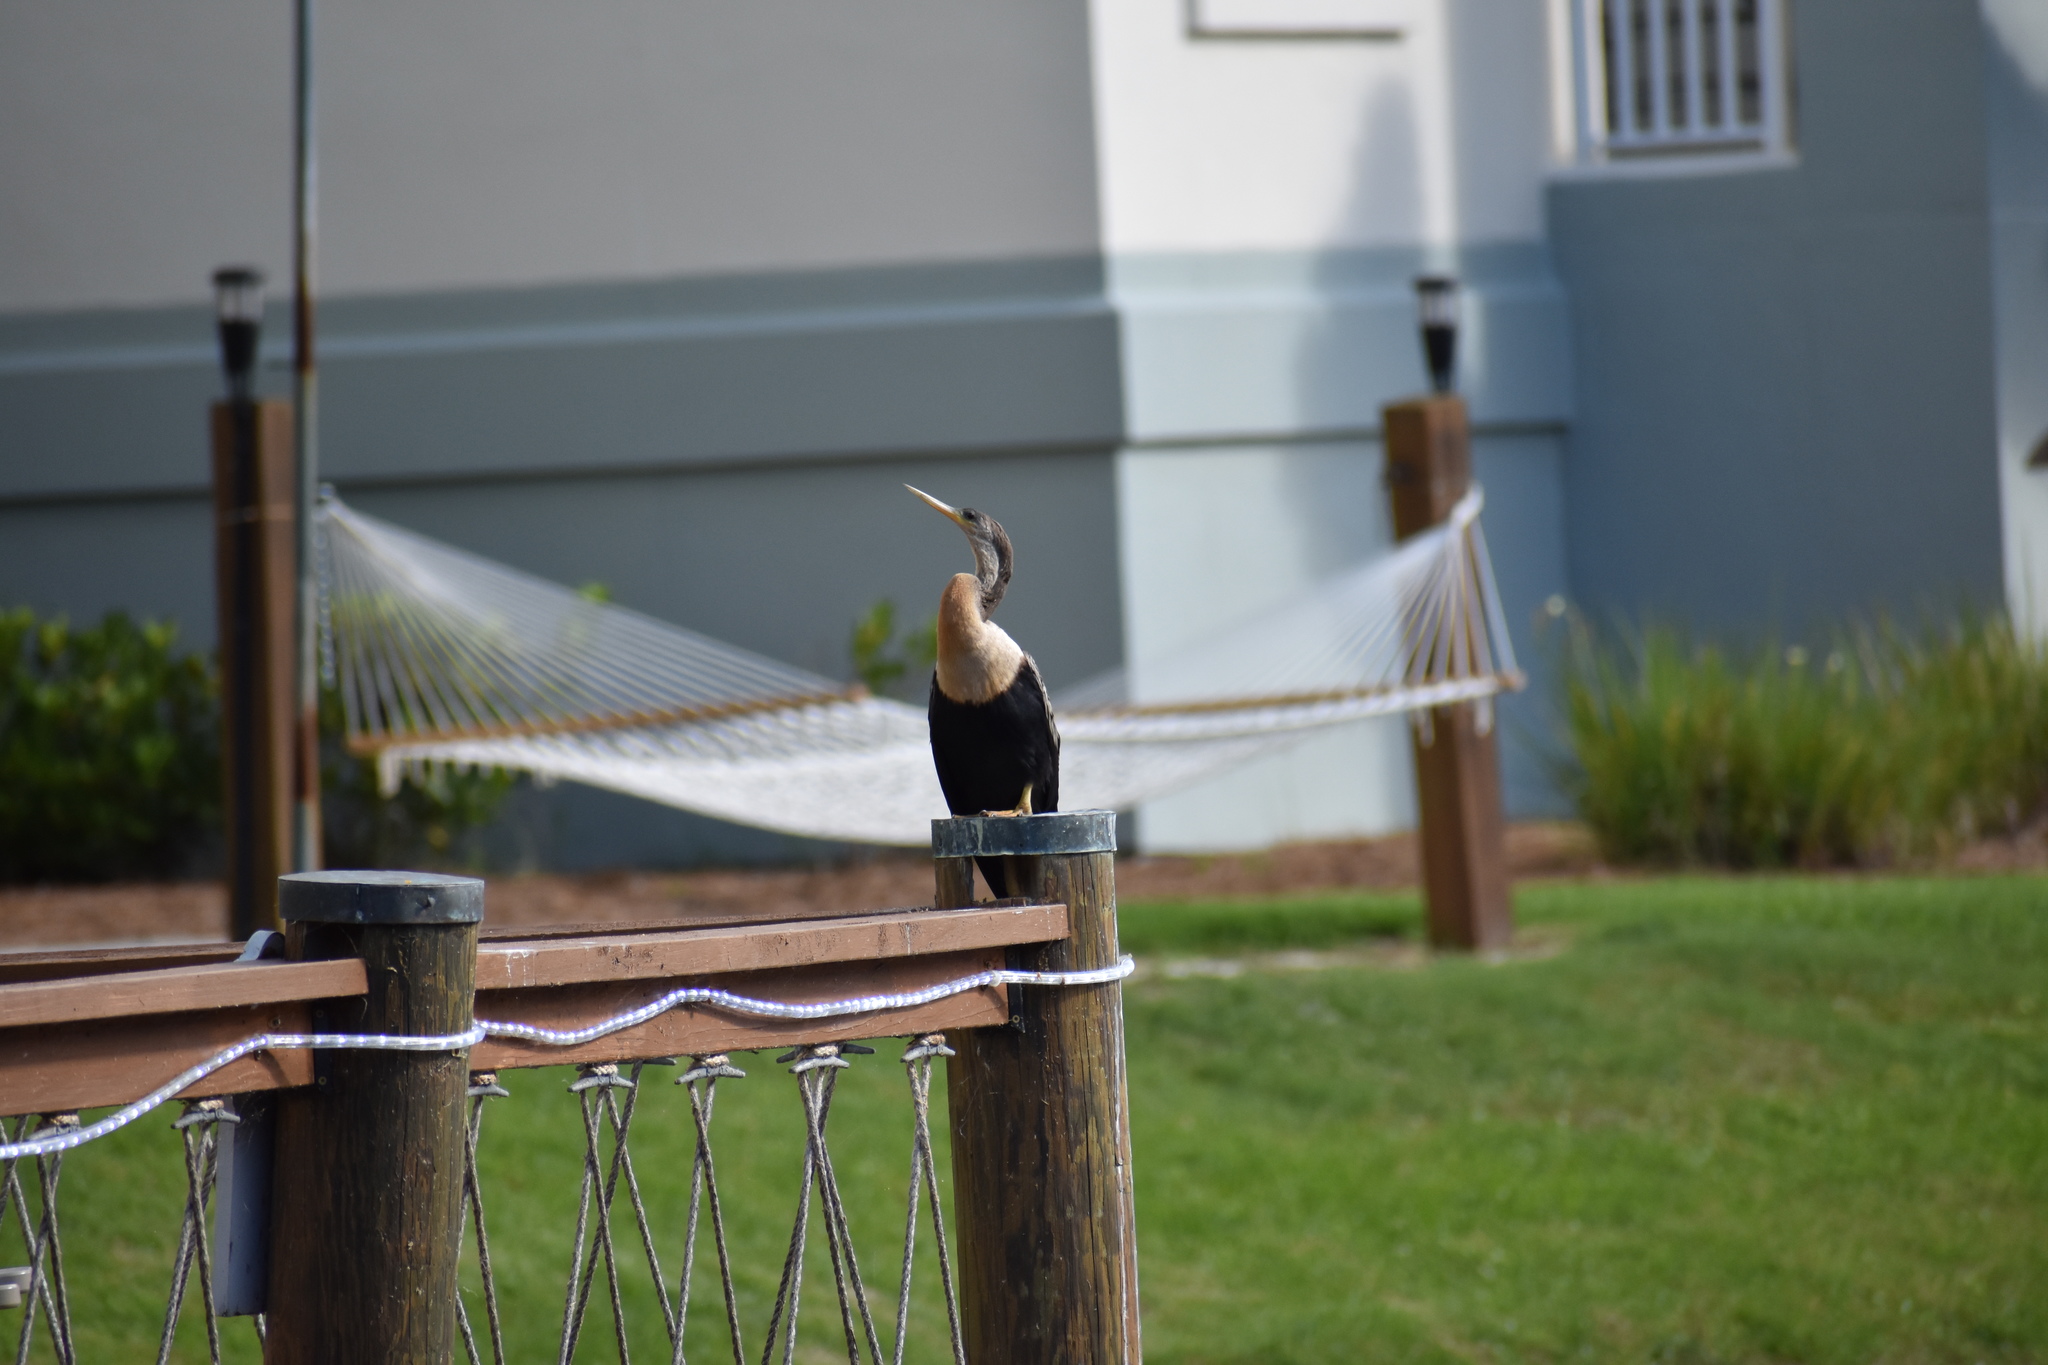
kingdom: Animalia
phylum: Chordata
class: Aves
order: Suliformes
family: Anhingidae
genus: Anhinga
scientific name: Anhinga anhinga
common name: Anhinga
